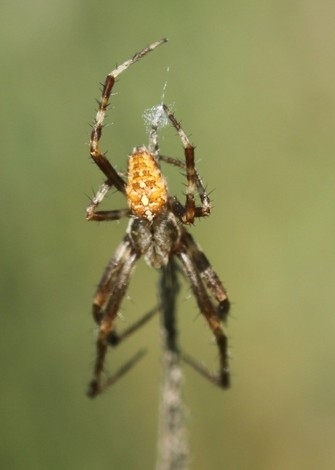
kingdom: Animalia
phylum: Arthropoda
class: Arachnida
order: Araneae
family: Araneidae
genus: Araneus
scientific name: Araneus diadematus
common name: Cross orbweaver
